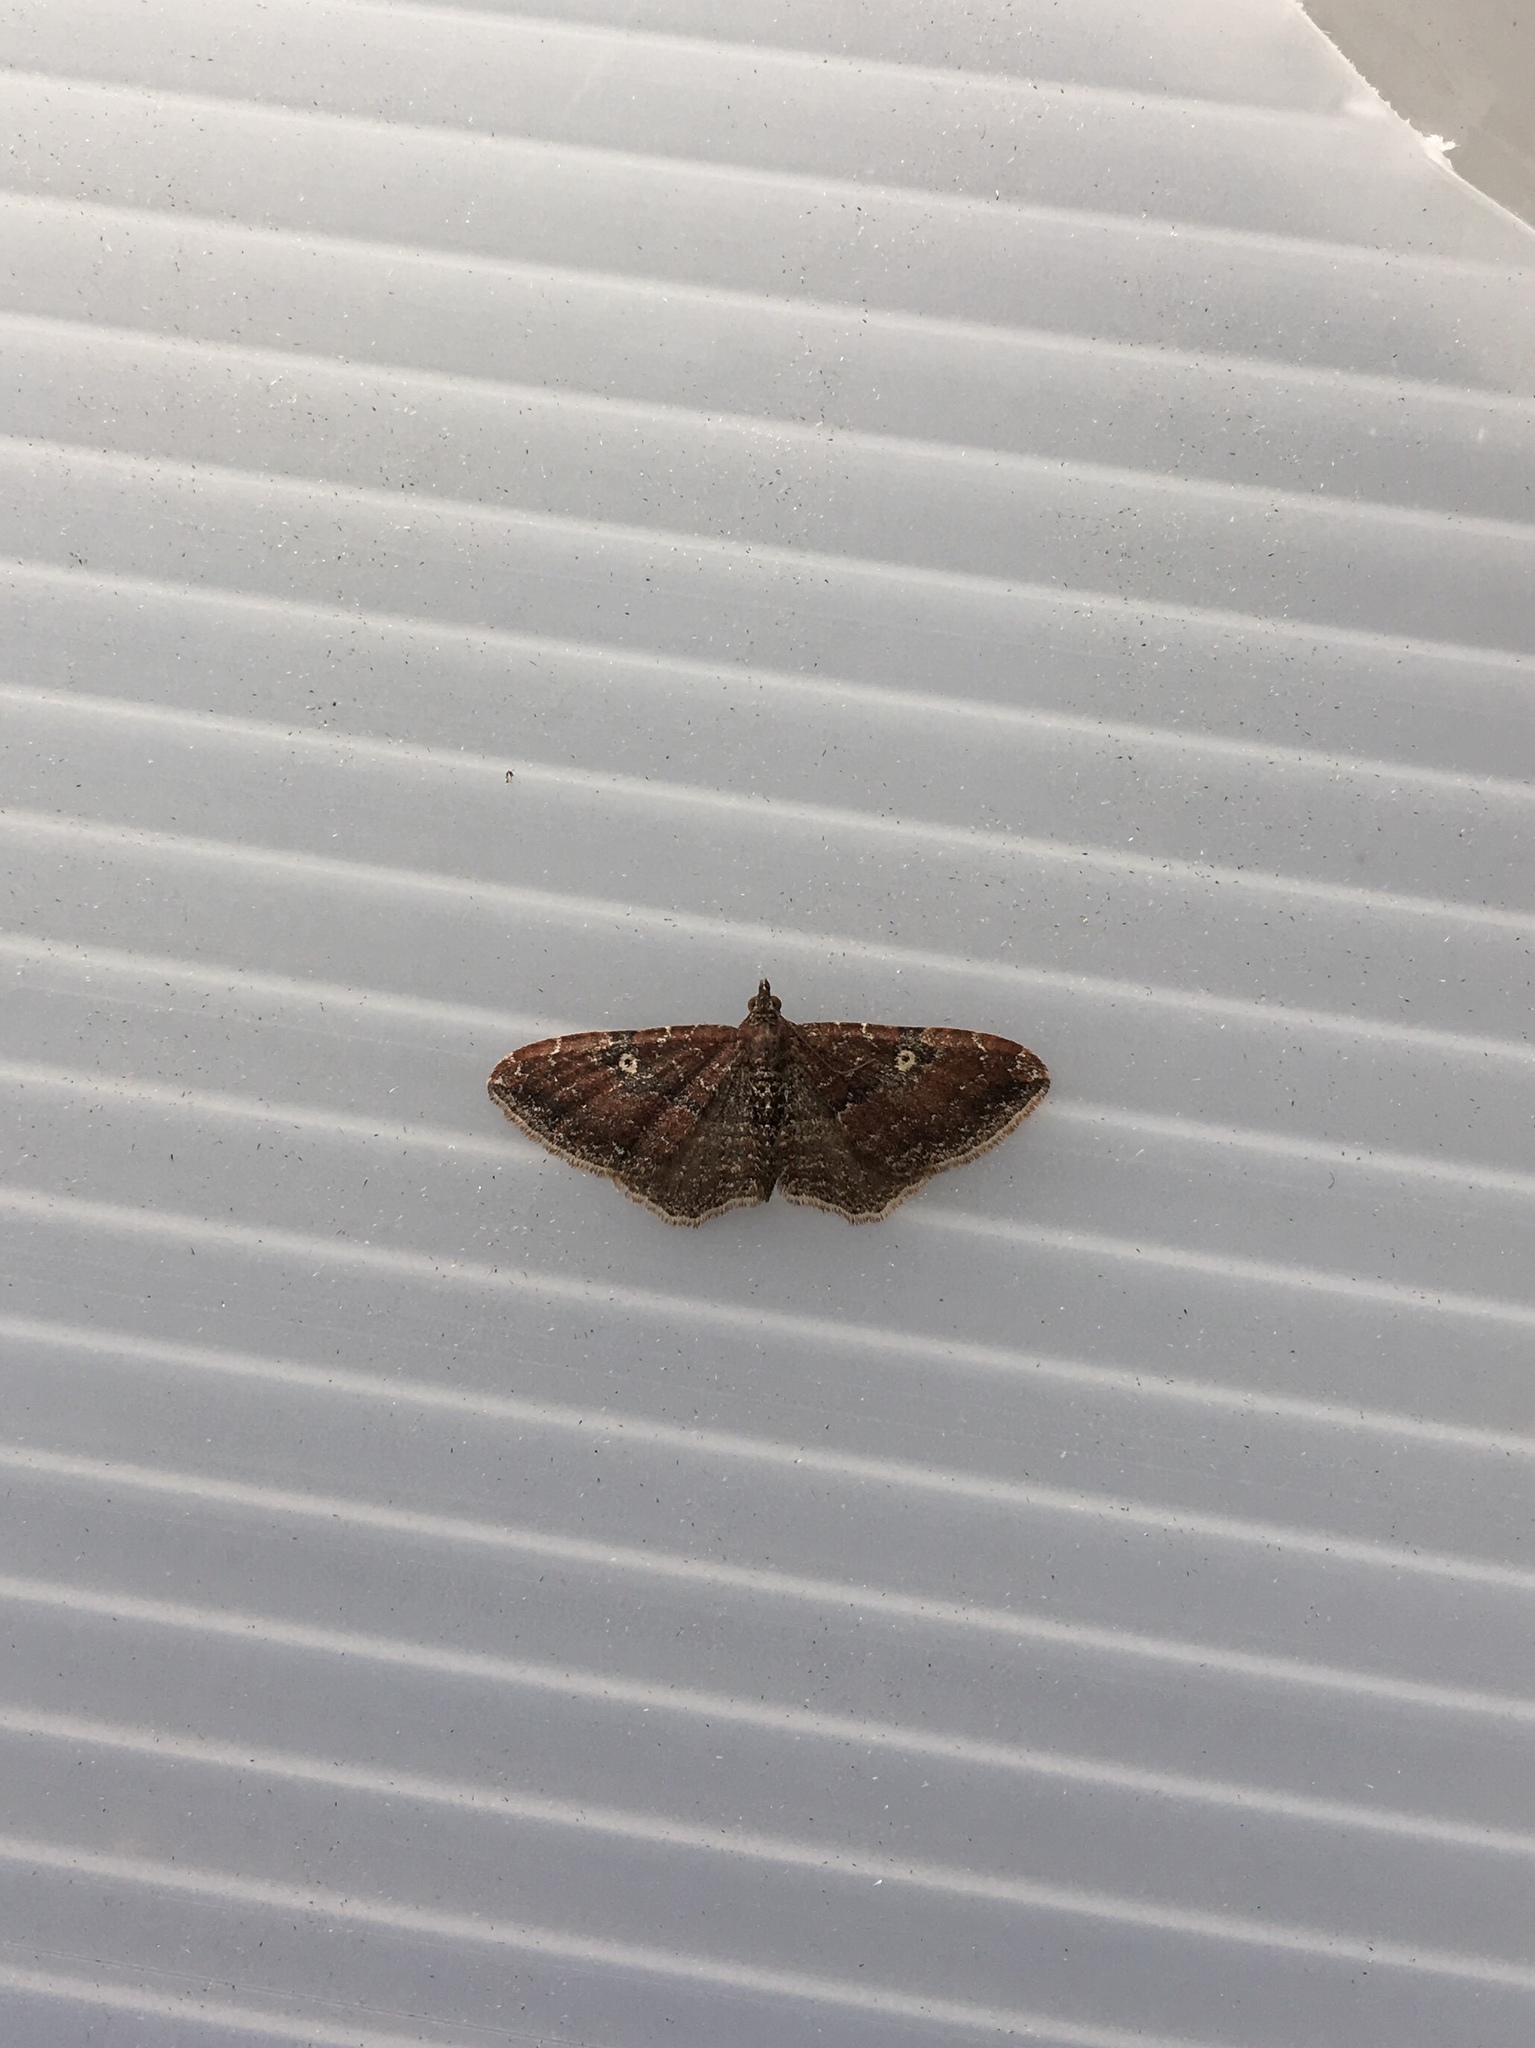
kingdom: Animalia
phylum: Arthropoda
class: Insecta
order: Lepidoptera
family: Geometridae
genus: Orthonama
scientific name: Orthonama obstipata
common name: The gem
